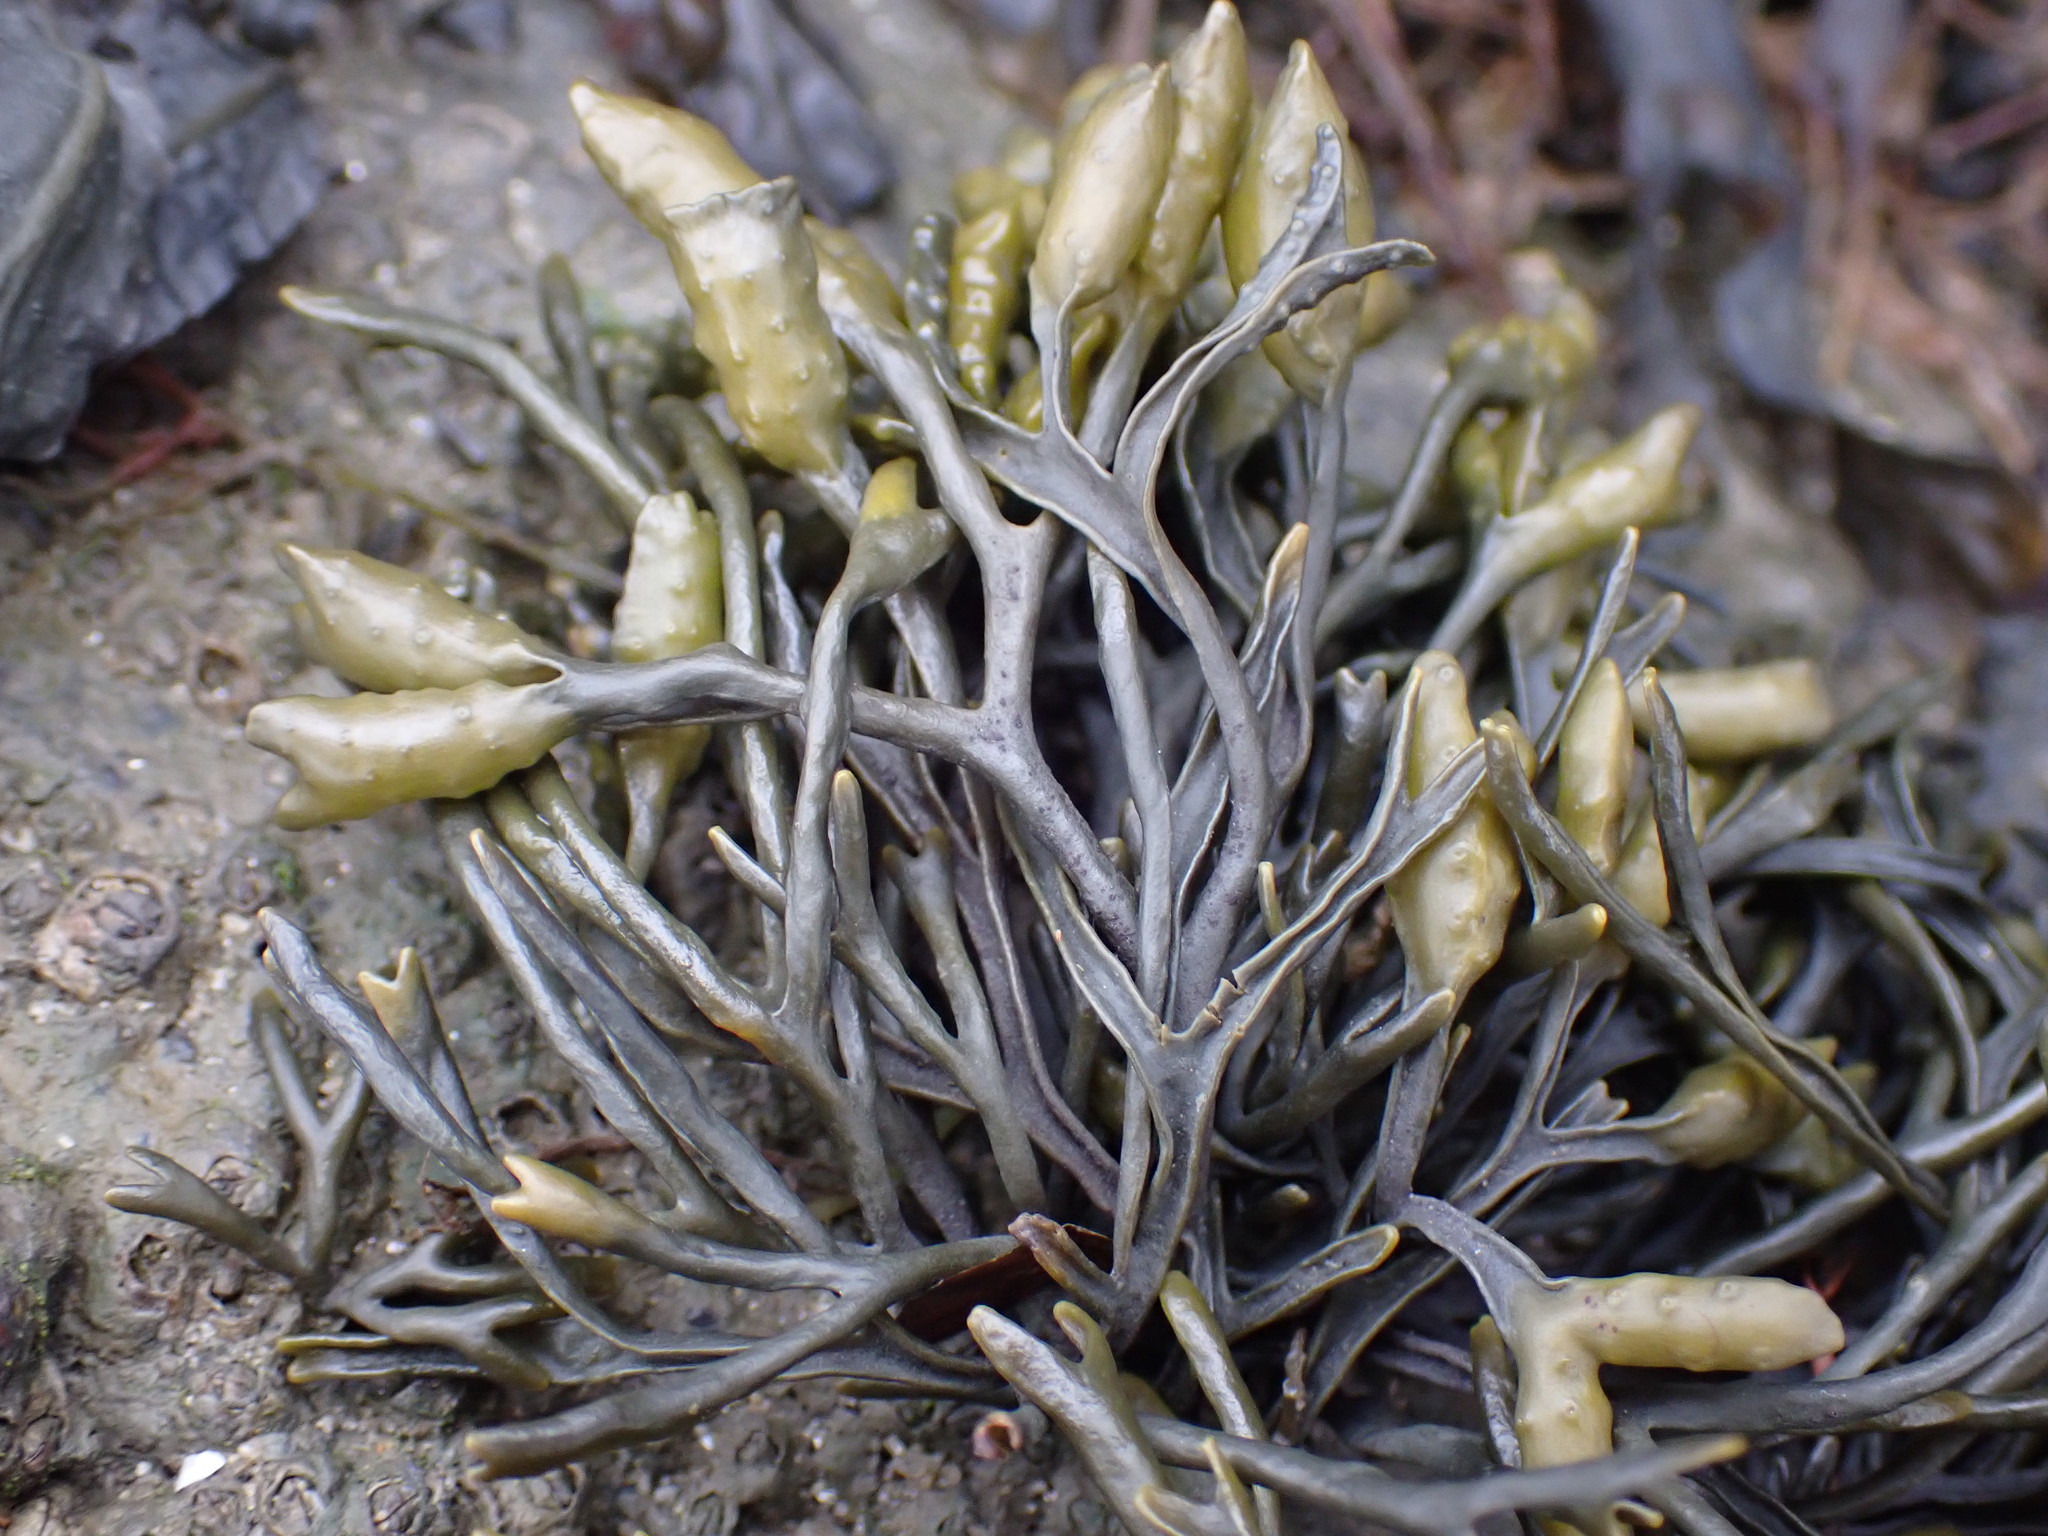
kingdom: Chromista
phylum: Ochrophyta
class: Phaeophyceae
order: Fucales
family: Fucaceae
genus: Pelvetia
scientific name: Pelvetia canaliculata
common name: Channelled wrack
